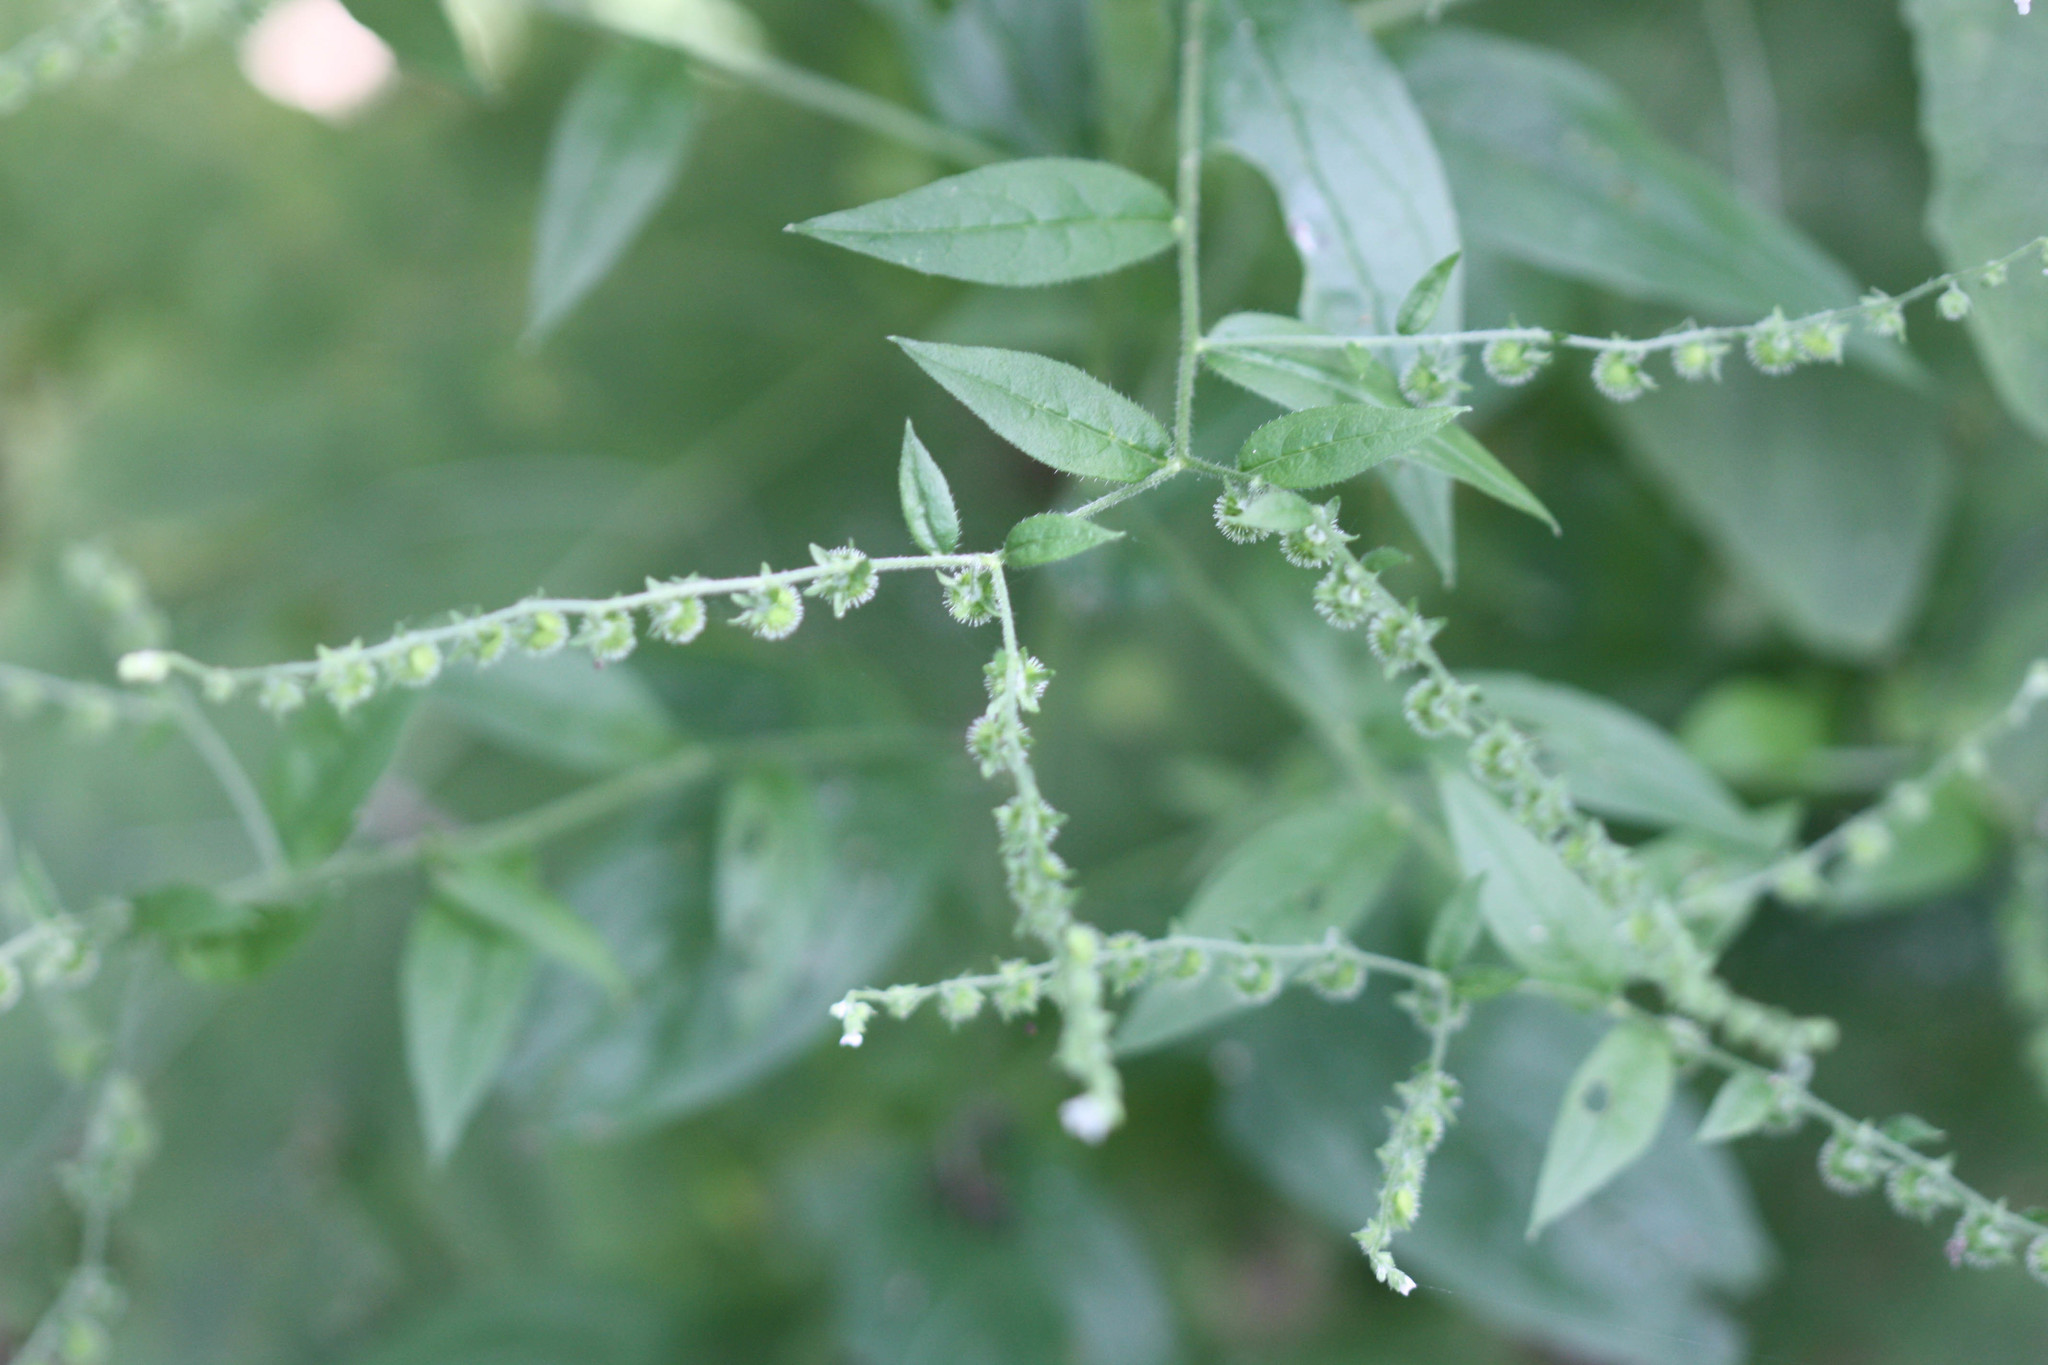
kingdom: Plantae
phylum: Tracheophyta
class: Magnoliopsida
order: Boraginales
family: Boraginaceae
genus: Hackelia
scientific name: Hackelia virginiana
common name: Beggar's-lice
